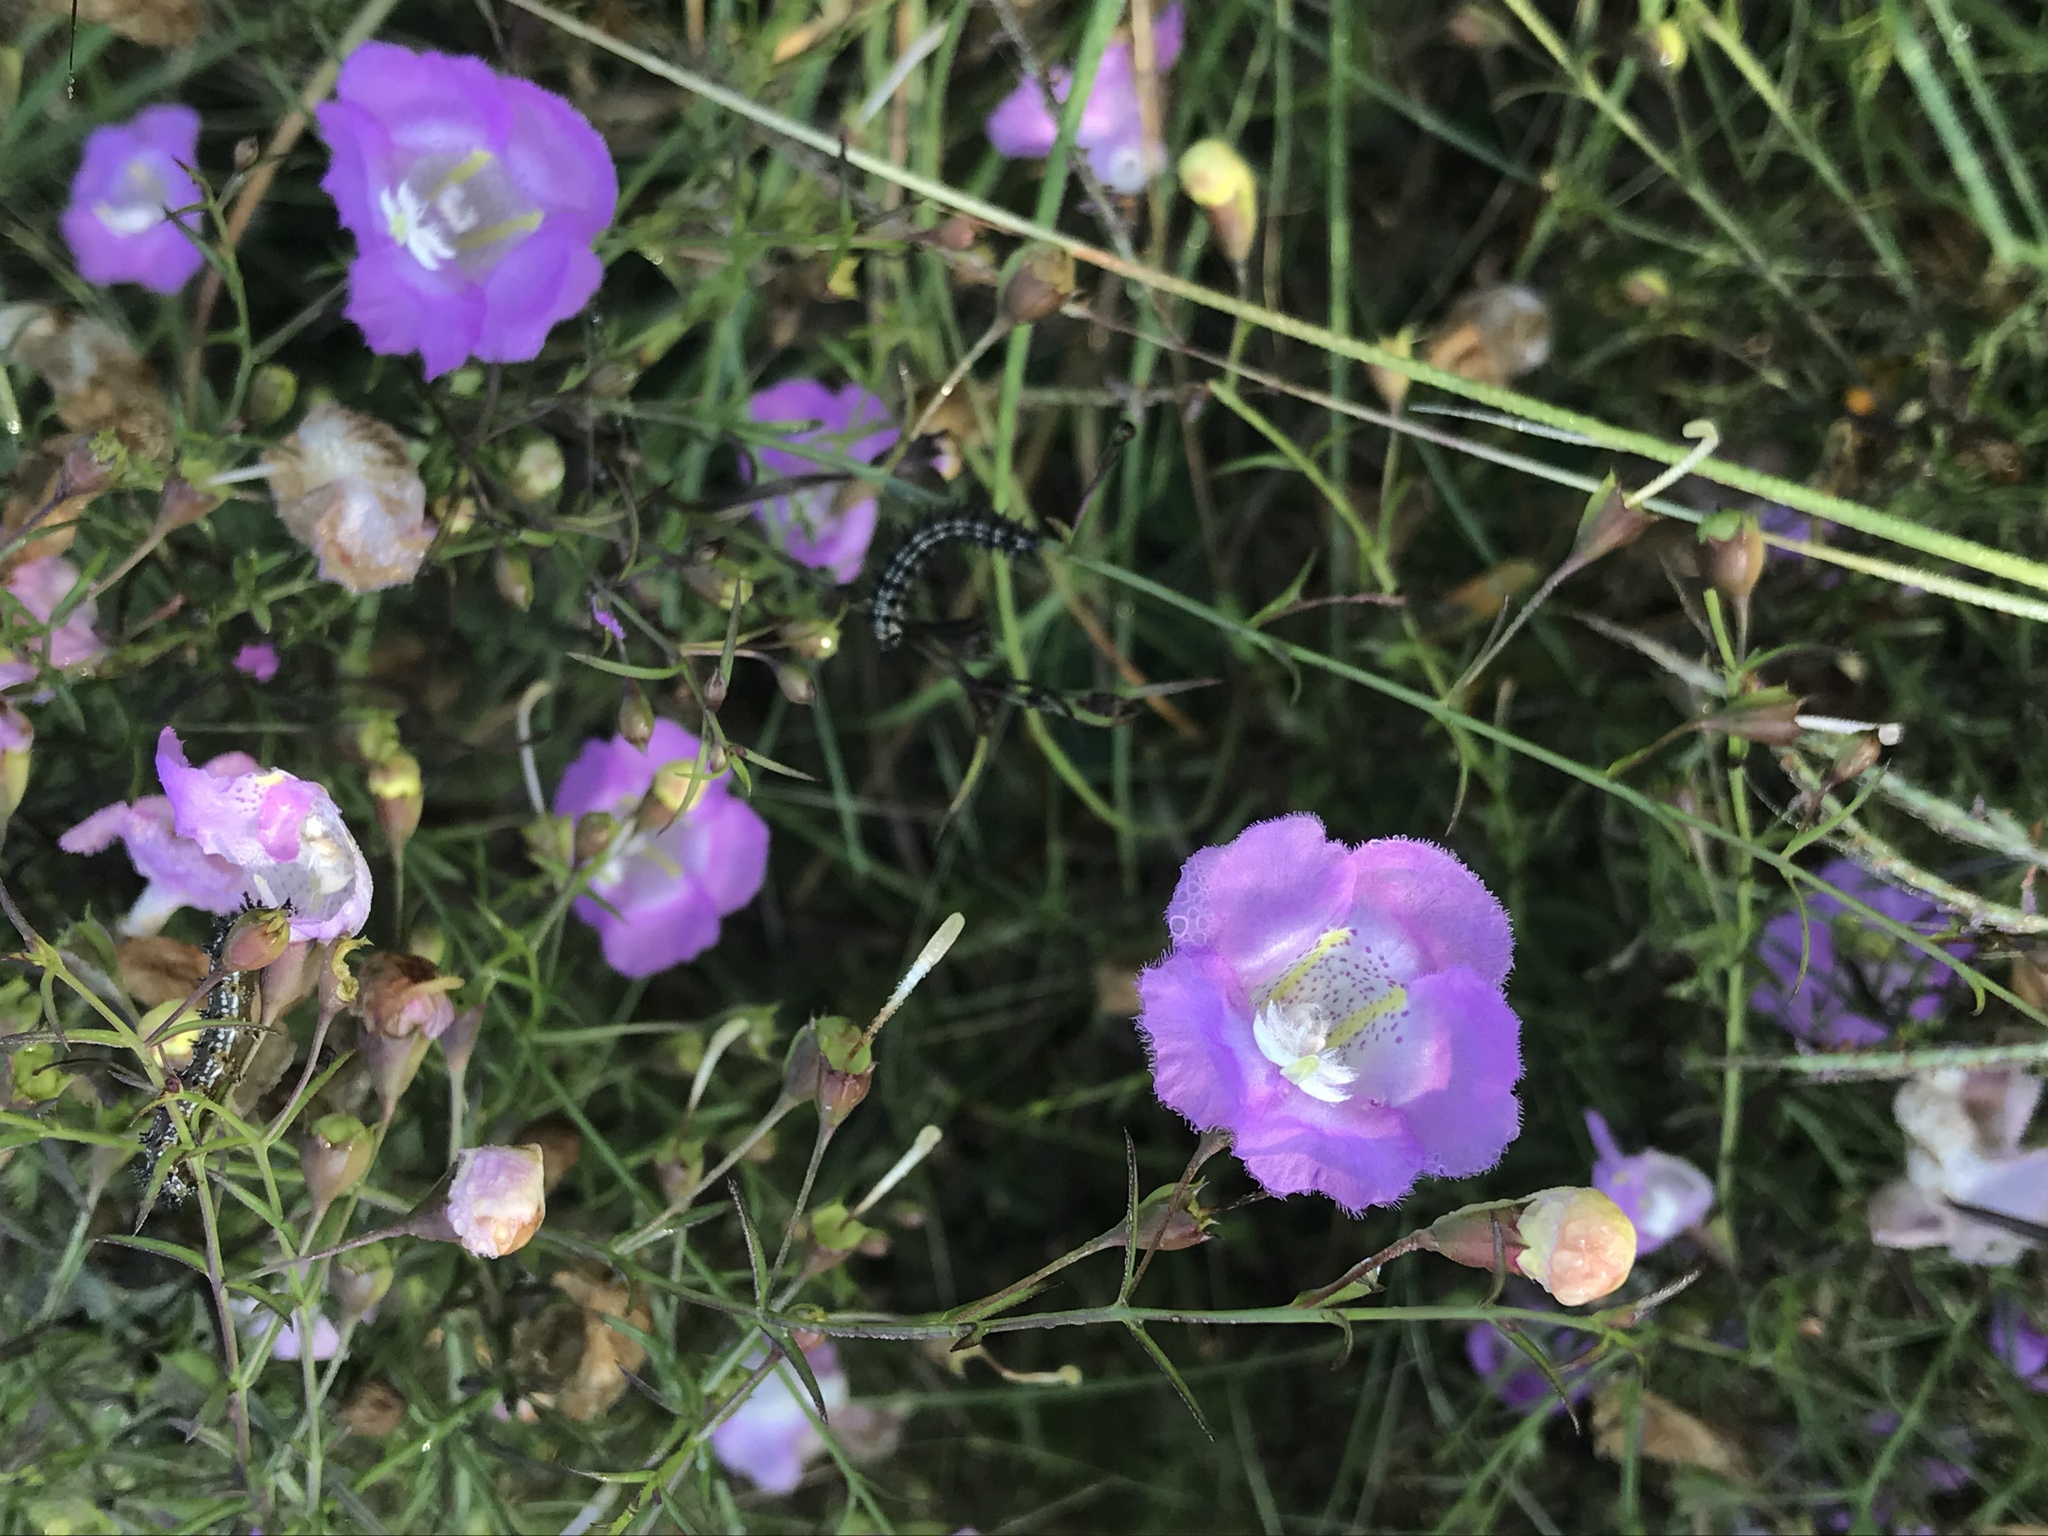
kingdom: Plantae
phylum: Tracheophyta
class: Magnoliopsida
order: Lamiales
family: Orobanchaceae
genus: Agalinis
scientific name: Agalinis strictifolia
